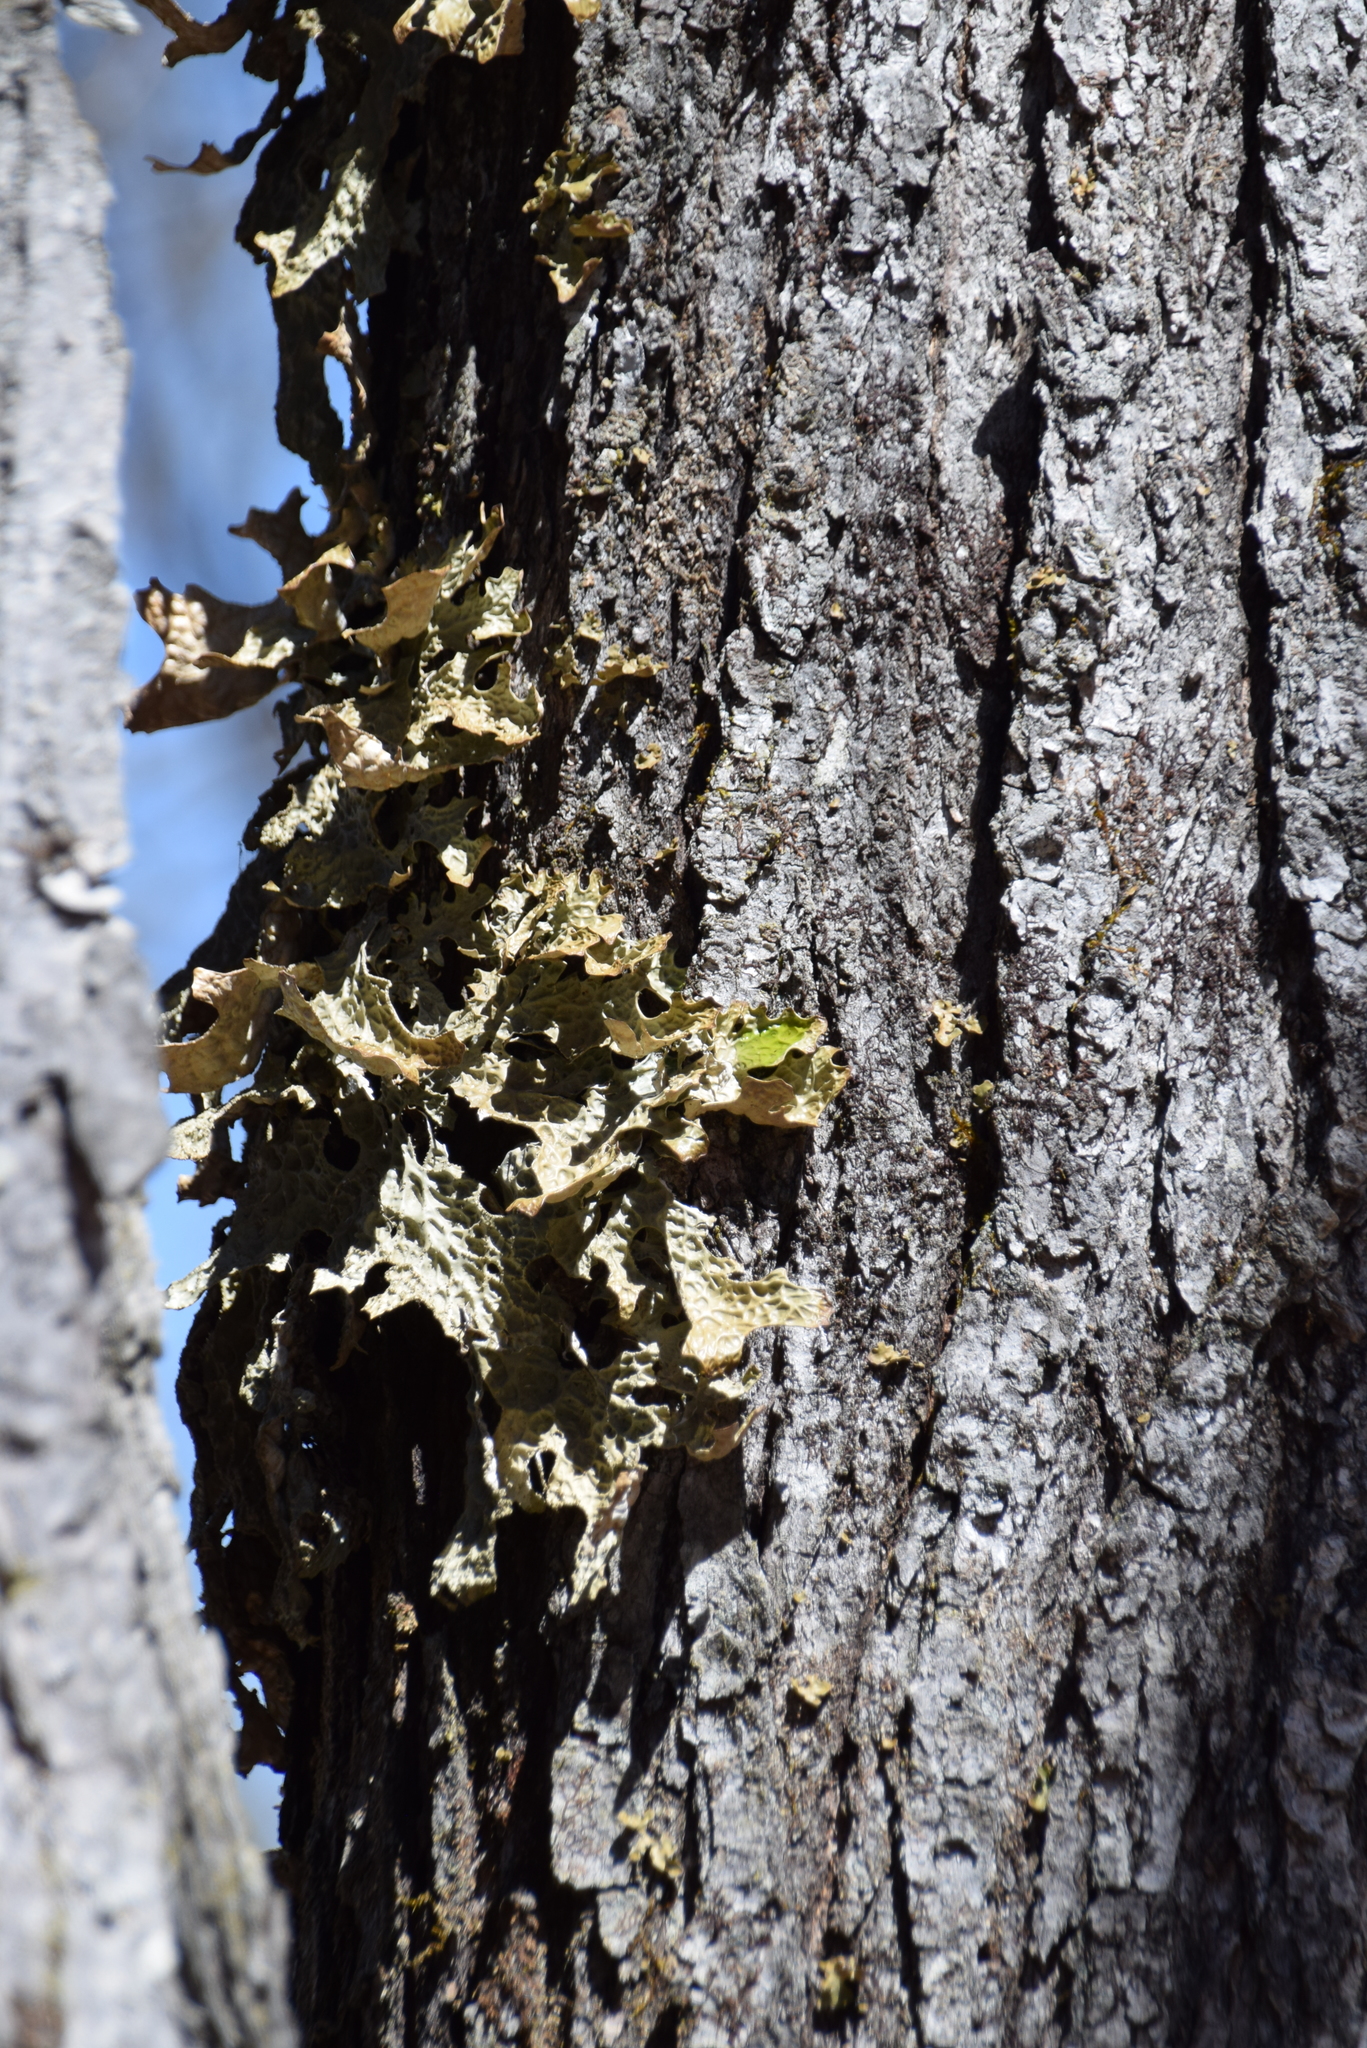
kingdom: Fungi
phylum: Ascomycota
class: Lecanoromycetes
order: Peltigerales
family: Lobariaceae
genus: Lobaria
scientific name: Lobaria pulmonaria
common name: Lungwort
